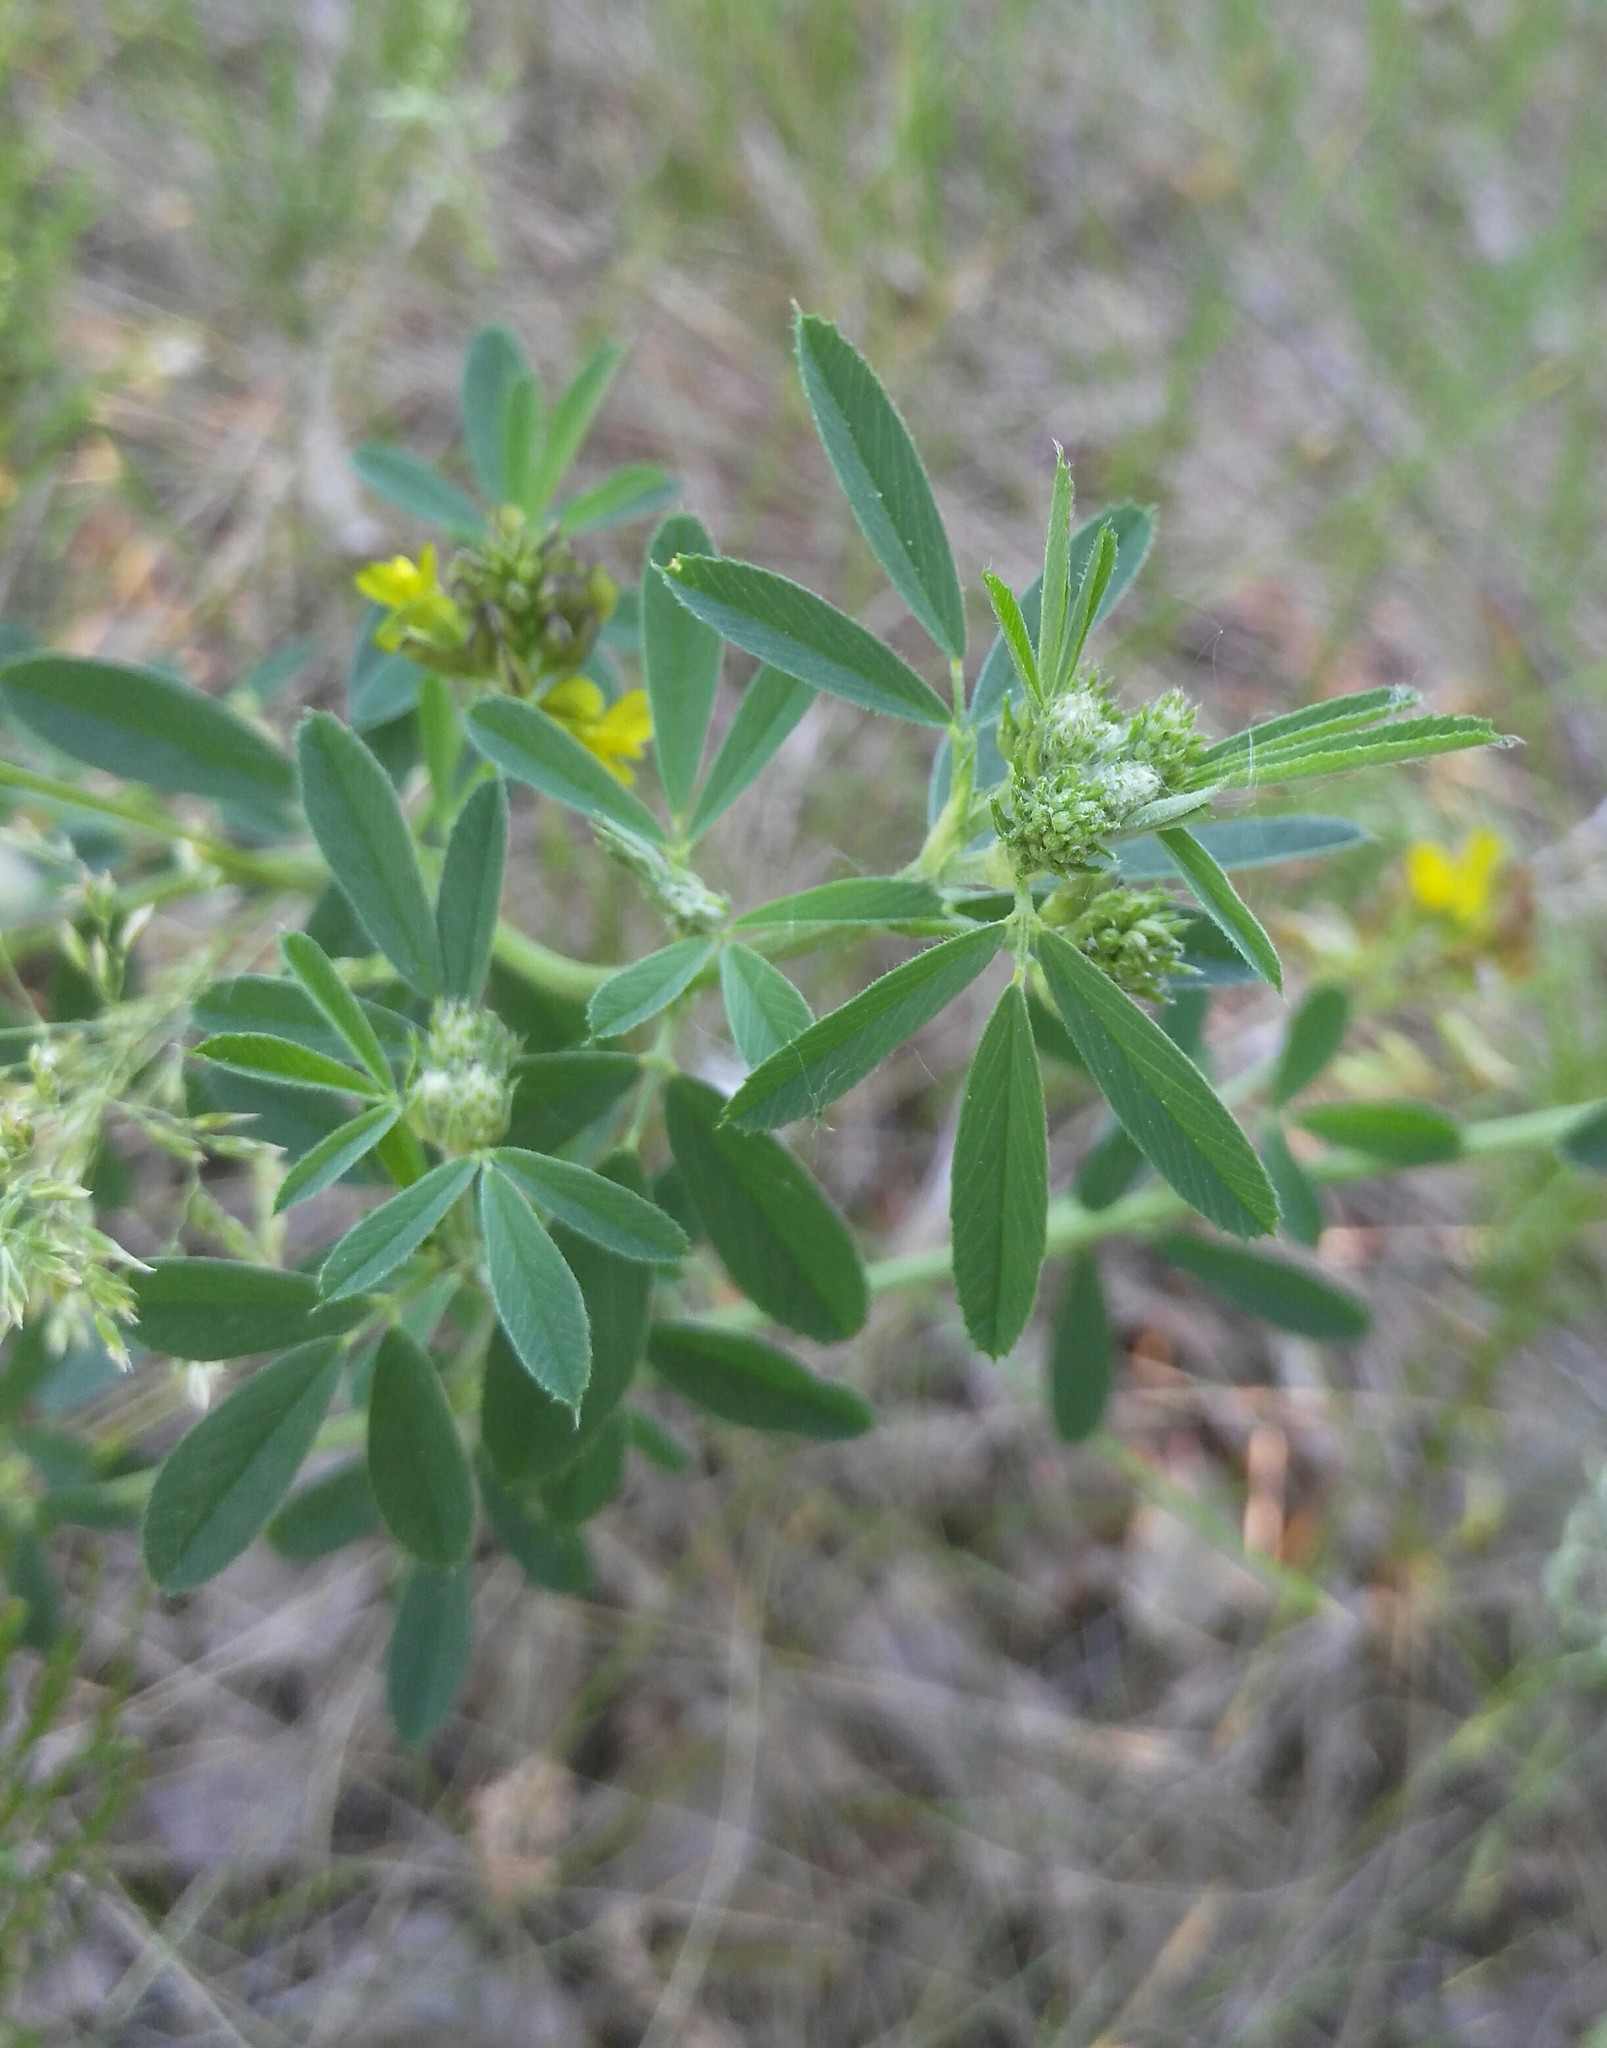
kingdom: Plantae
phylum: Tracheophyta
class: Magnoliopsida
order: Fabales
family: Fabaceae
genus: Medicago
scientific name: Medicago varia
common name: Sand lucerne
